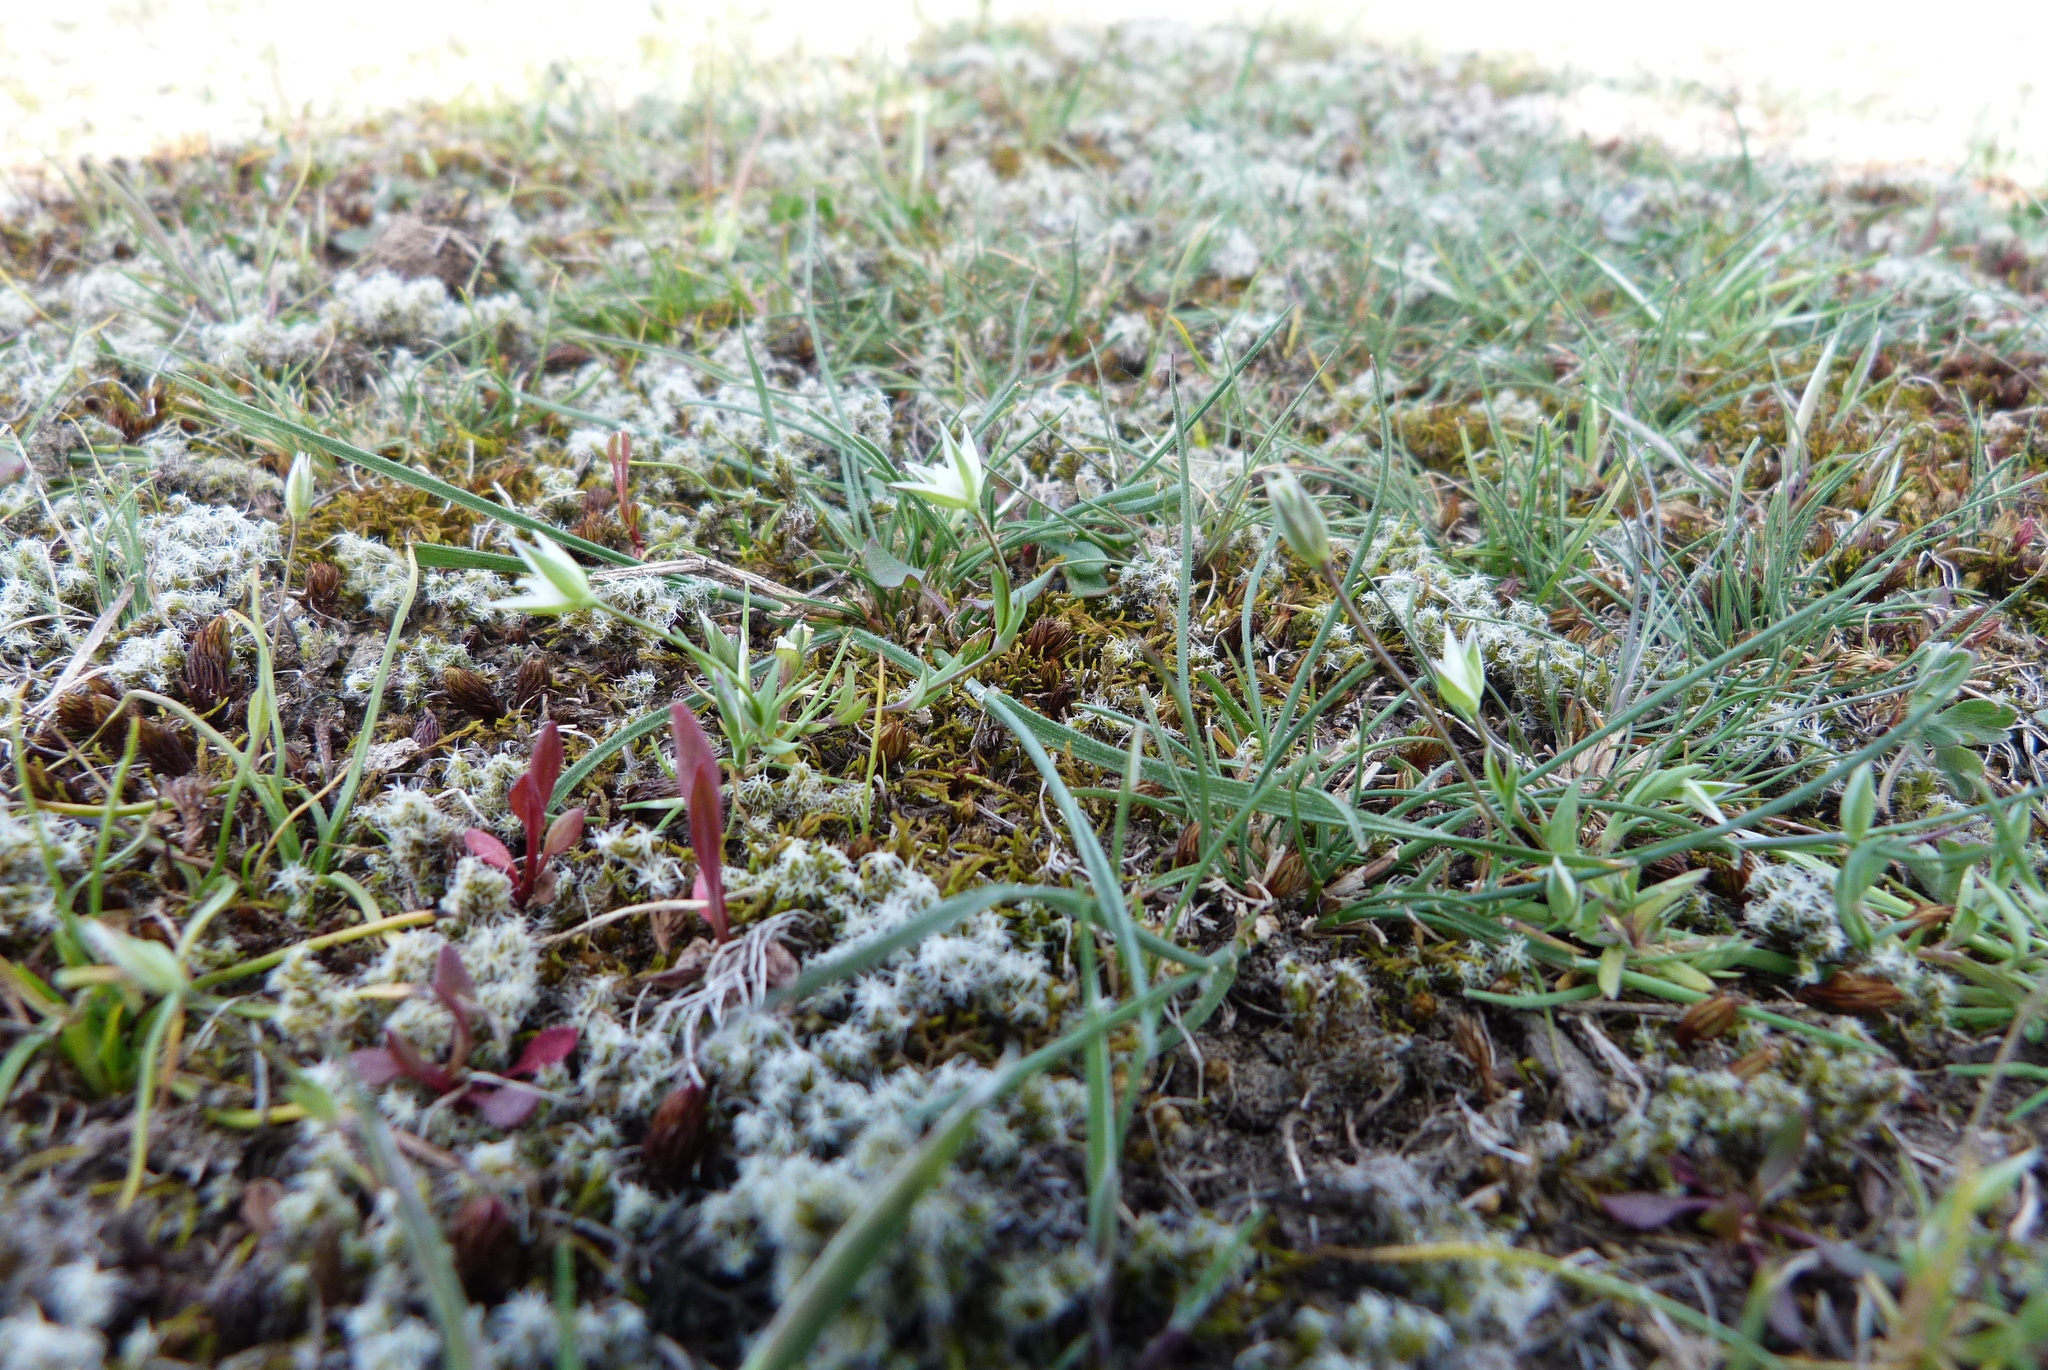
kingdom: Plantae
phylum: Tracheophyta
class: Magnoliopsida
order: Caryophyllales
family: Caryophyllaceae
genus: Moenchia
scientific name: Moenchia erecta
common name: Upright chickweed
